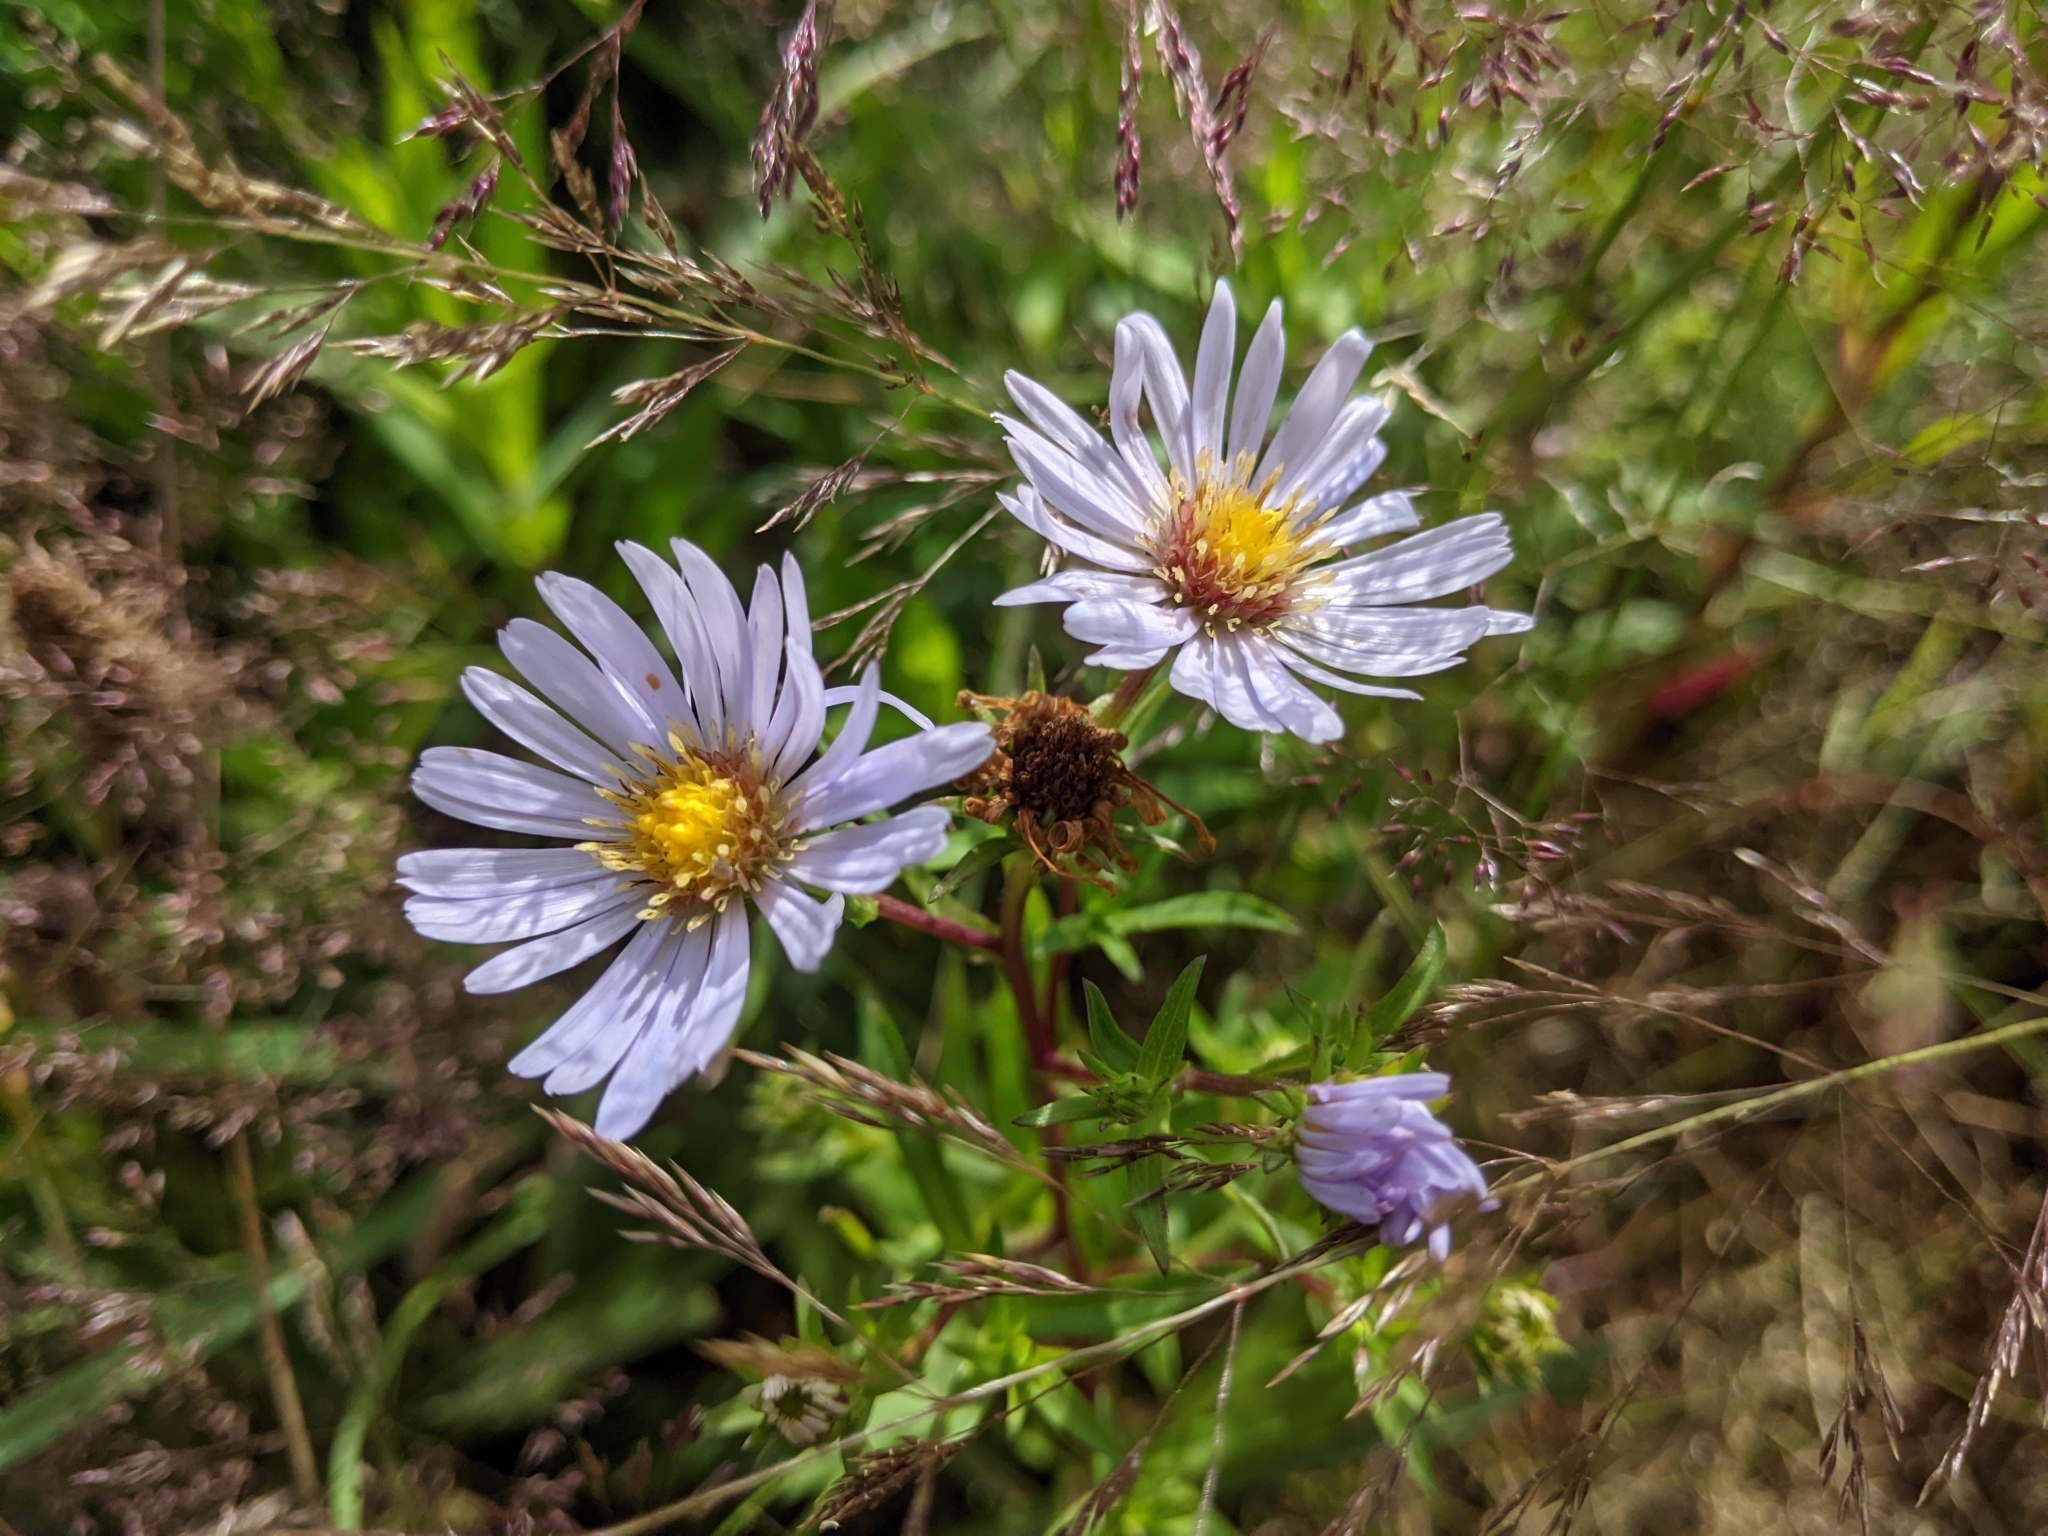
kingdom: Plantae
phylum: Tracheophyta
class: Magnoliopsida
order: Asterales
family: Asteraceae
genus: Tripolium
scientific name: Tripolium pannonicum
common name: Sea aster
